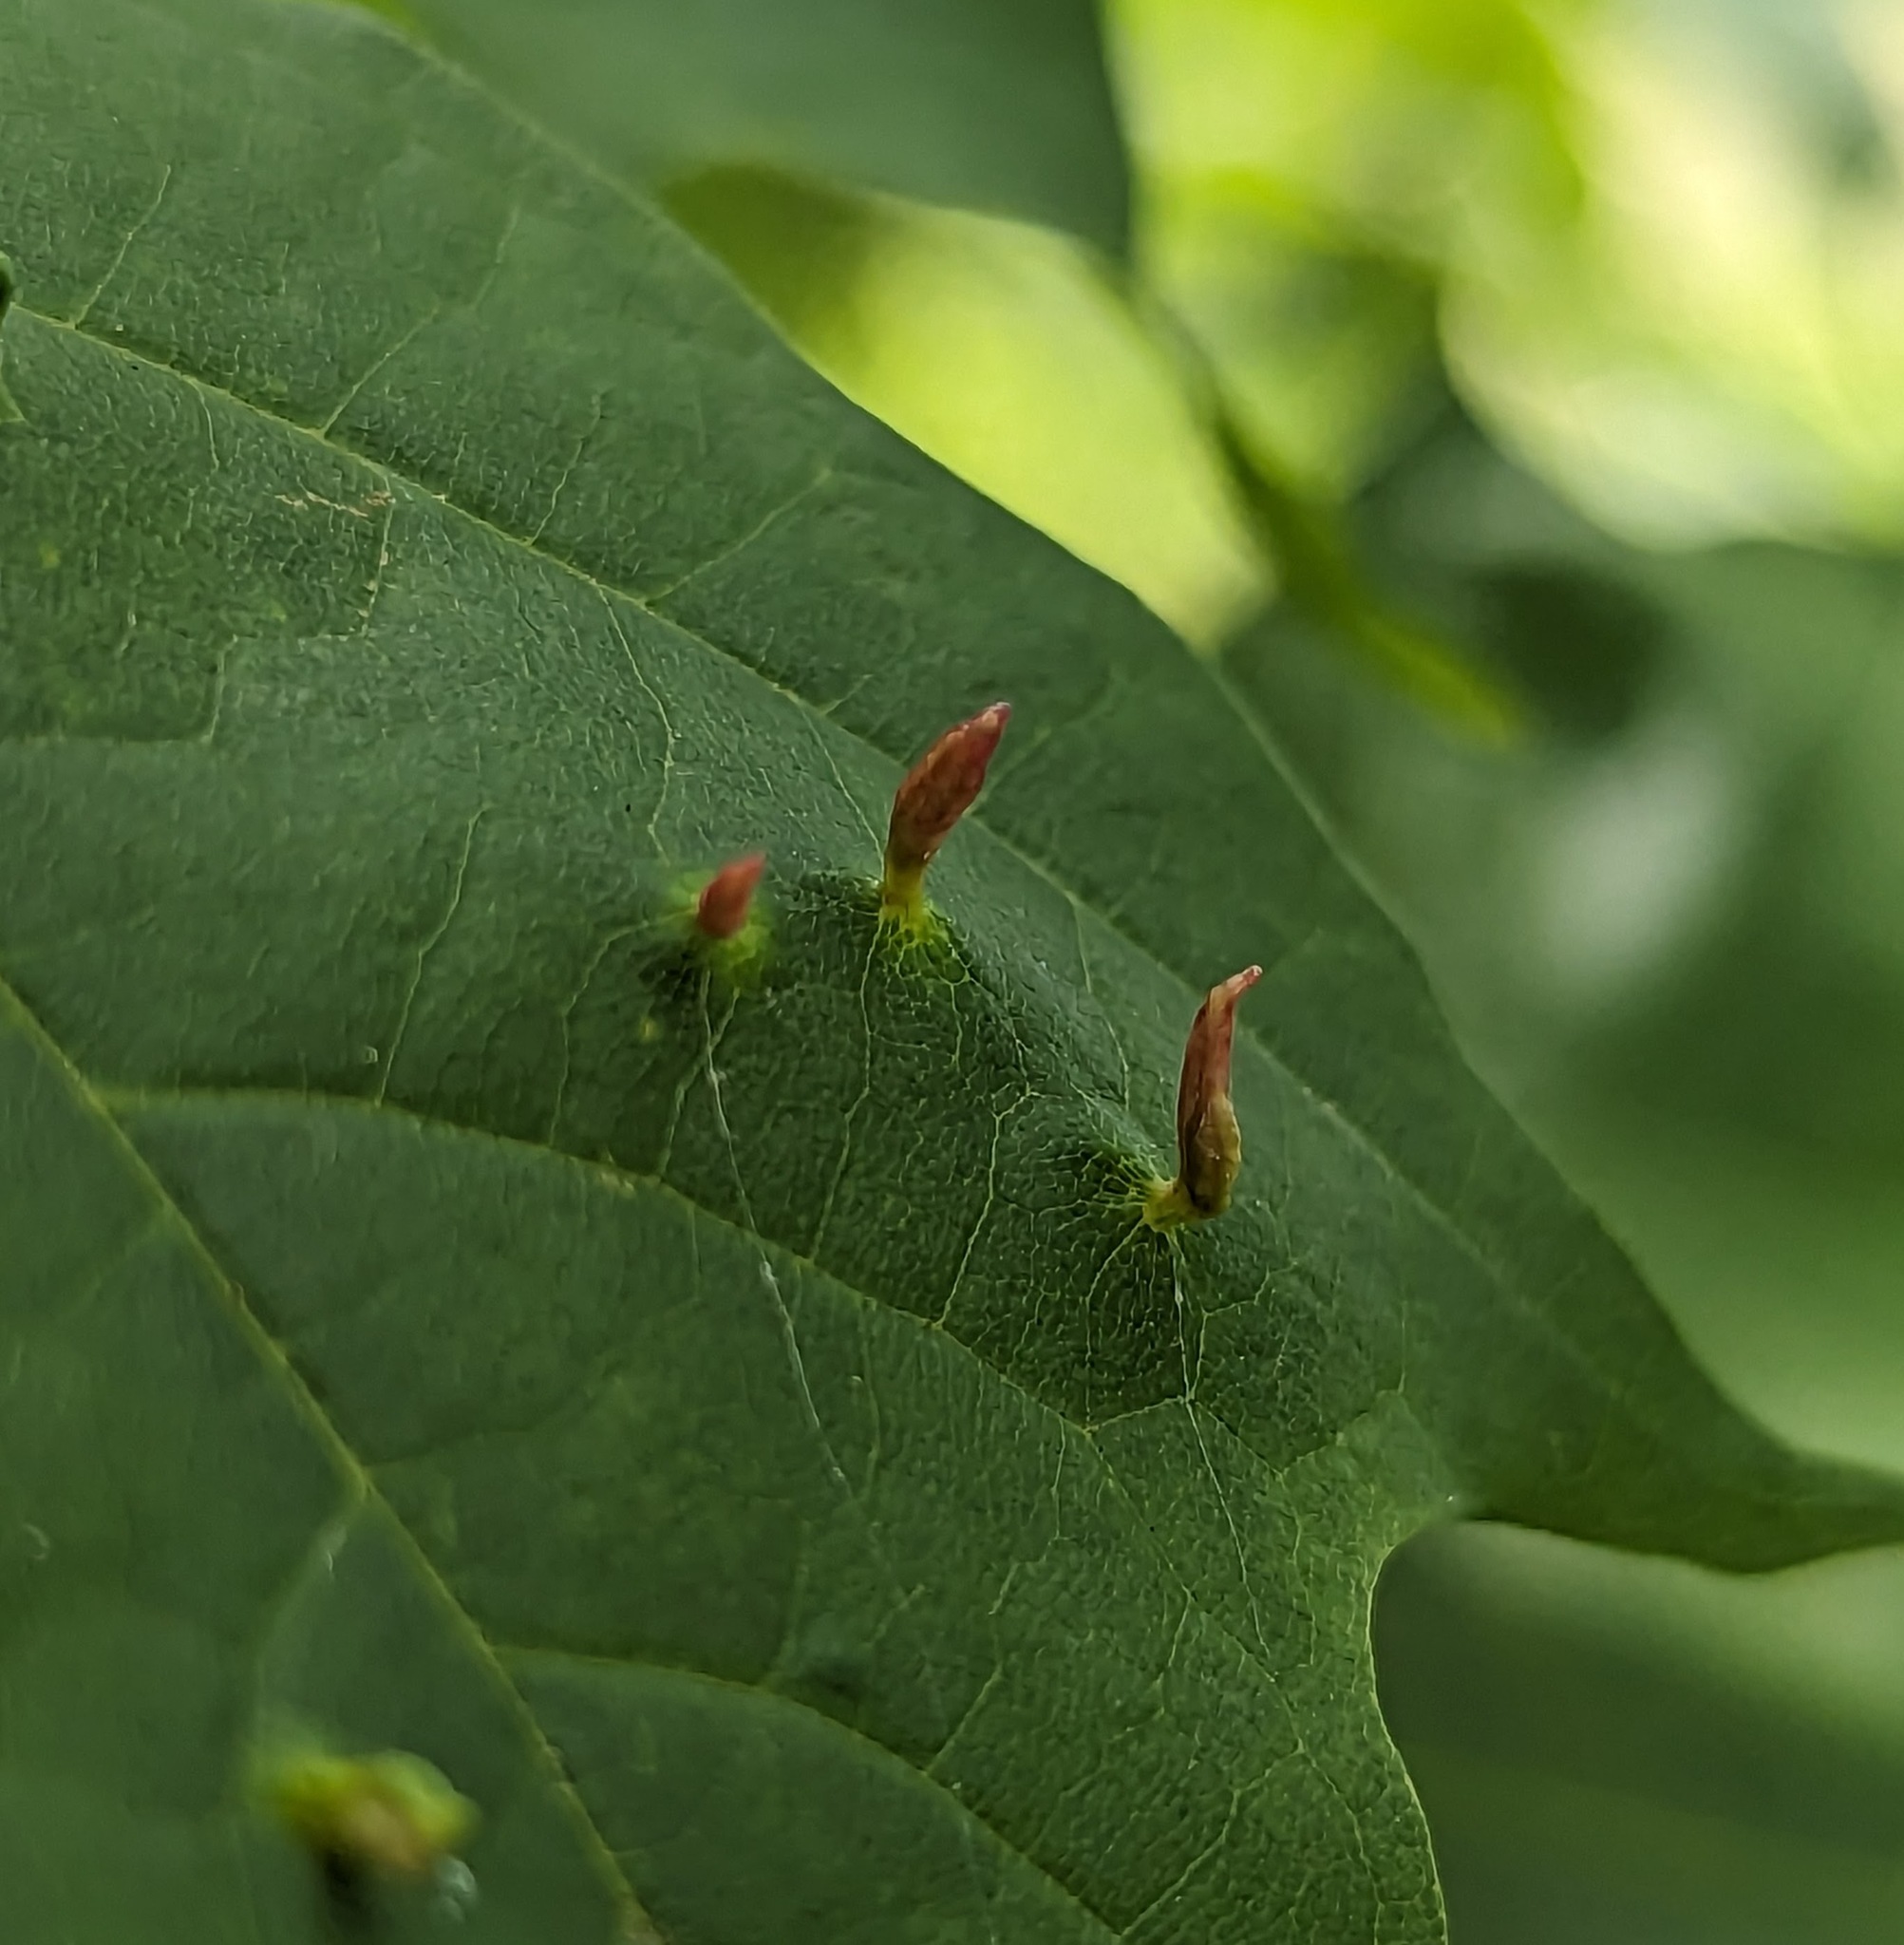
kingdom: Animalia
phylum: Arthropoda
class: Arachnida
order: Trombidiformes
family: Eriophyidae
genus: Vasates
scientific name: Vasates aceriscrumena
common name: Maple spindle gall mite
